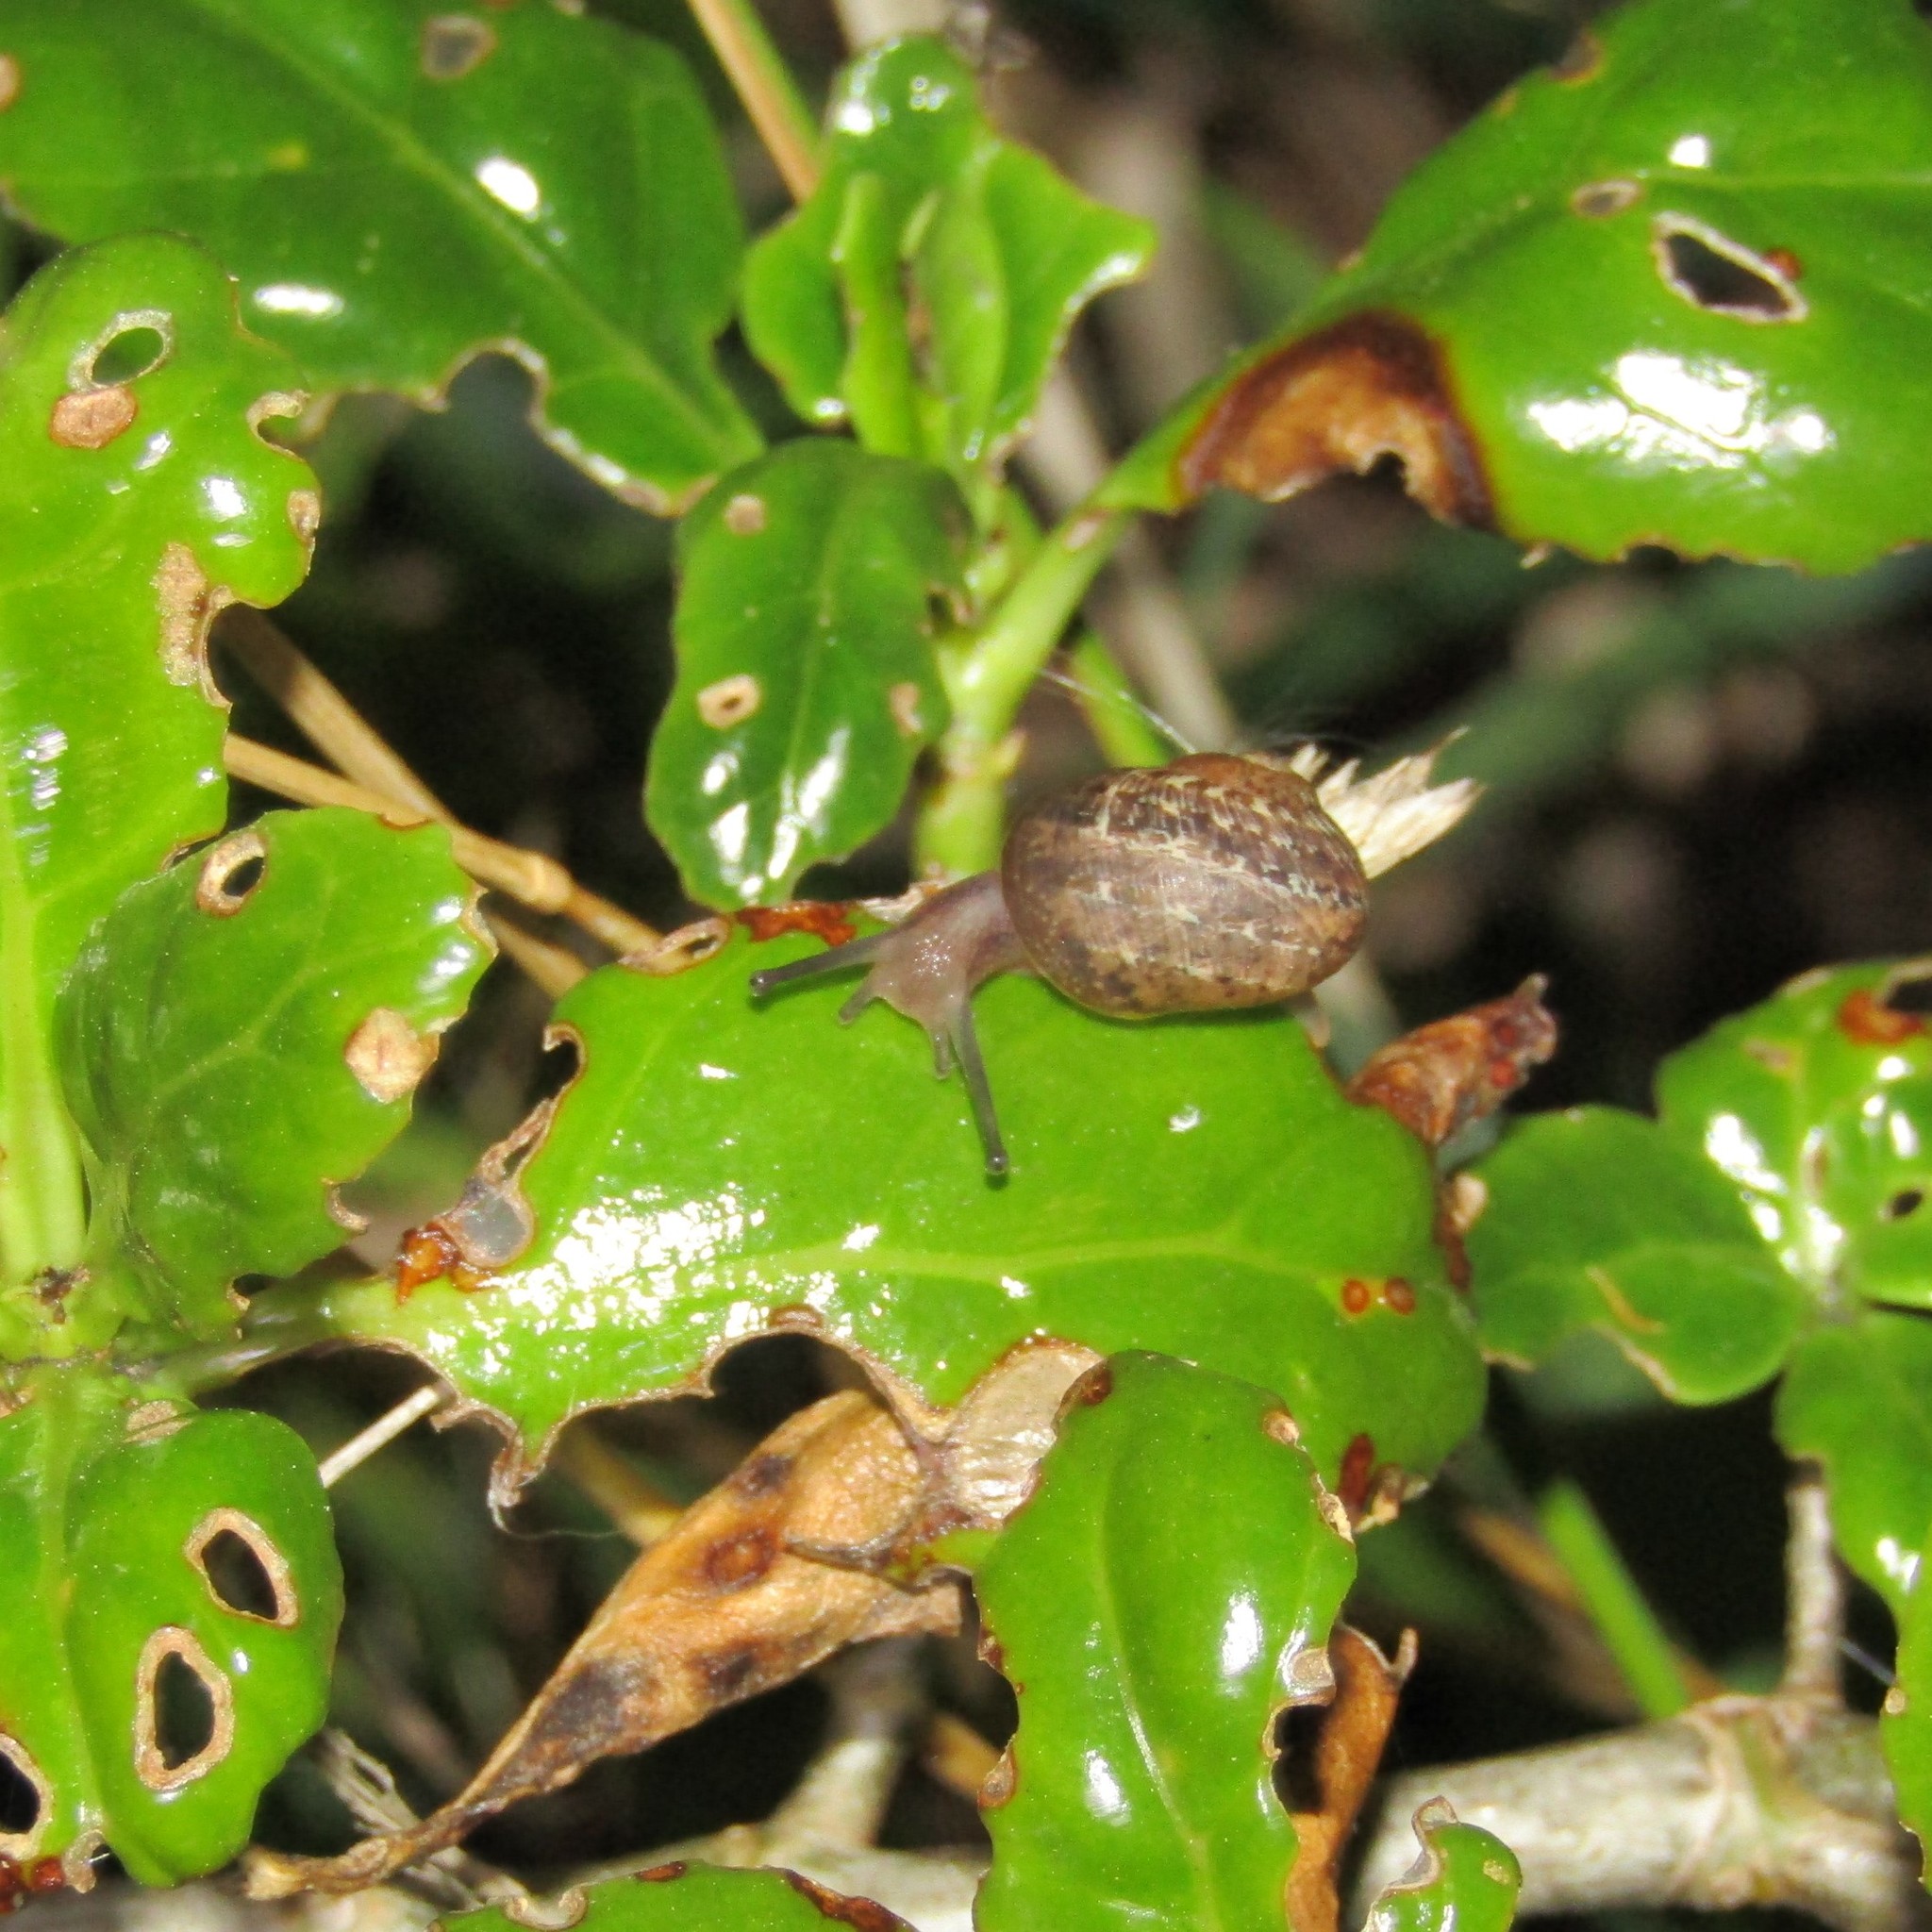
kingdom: Animalia
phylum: Mollusca
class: Gastropoda
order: Stylommatophora
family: Helicidae
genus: Cornu
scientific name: Cornu aspersum
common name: Brown garden snail
